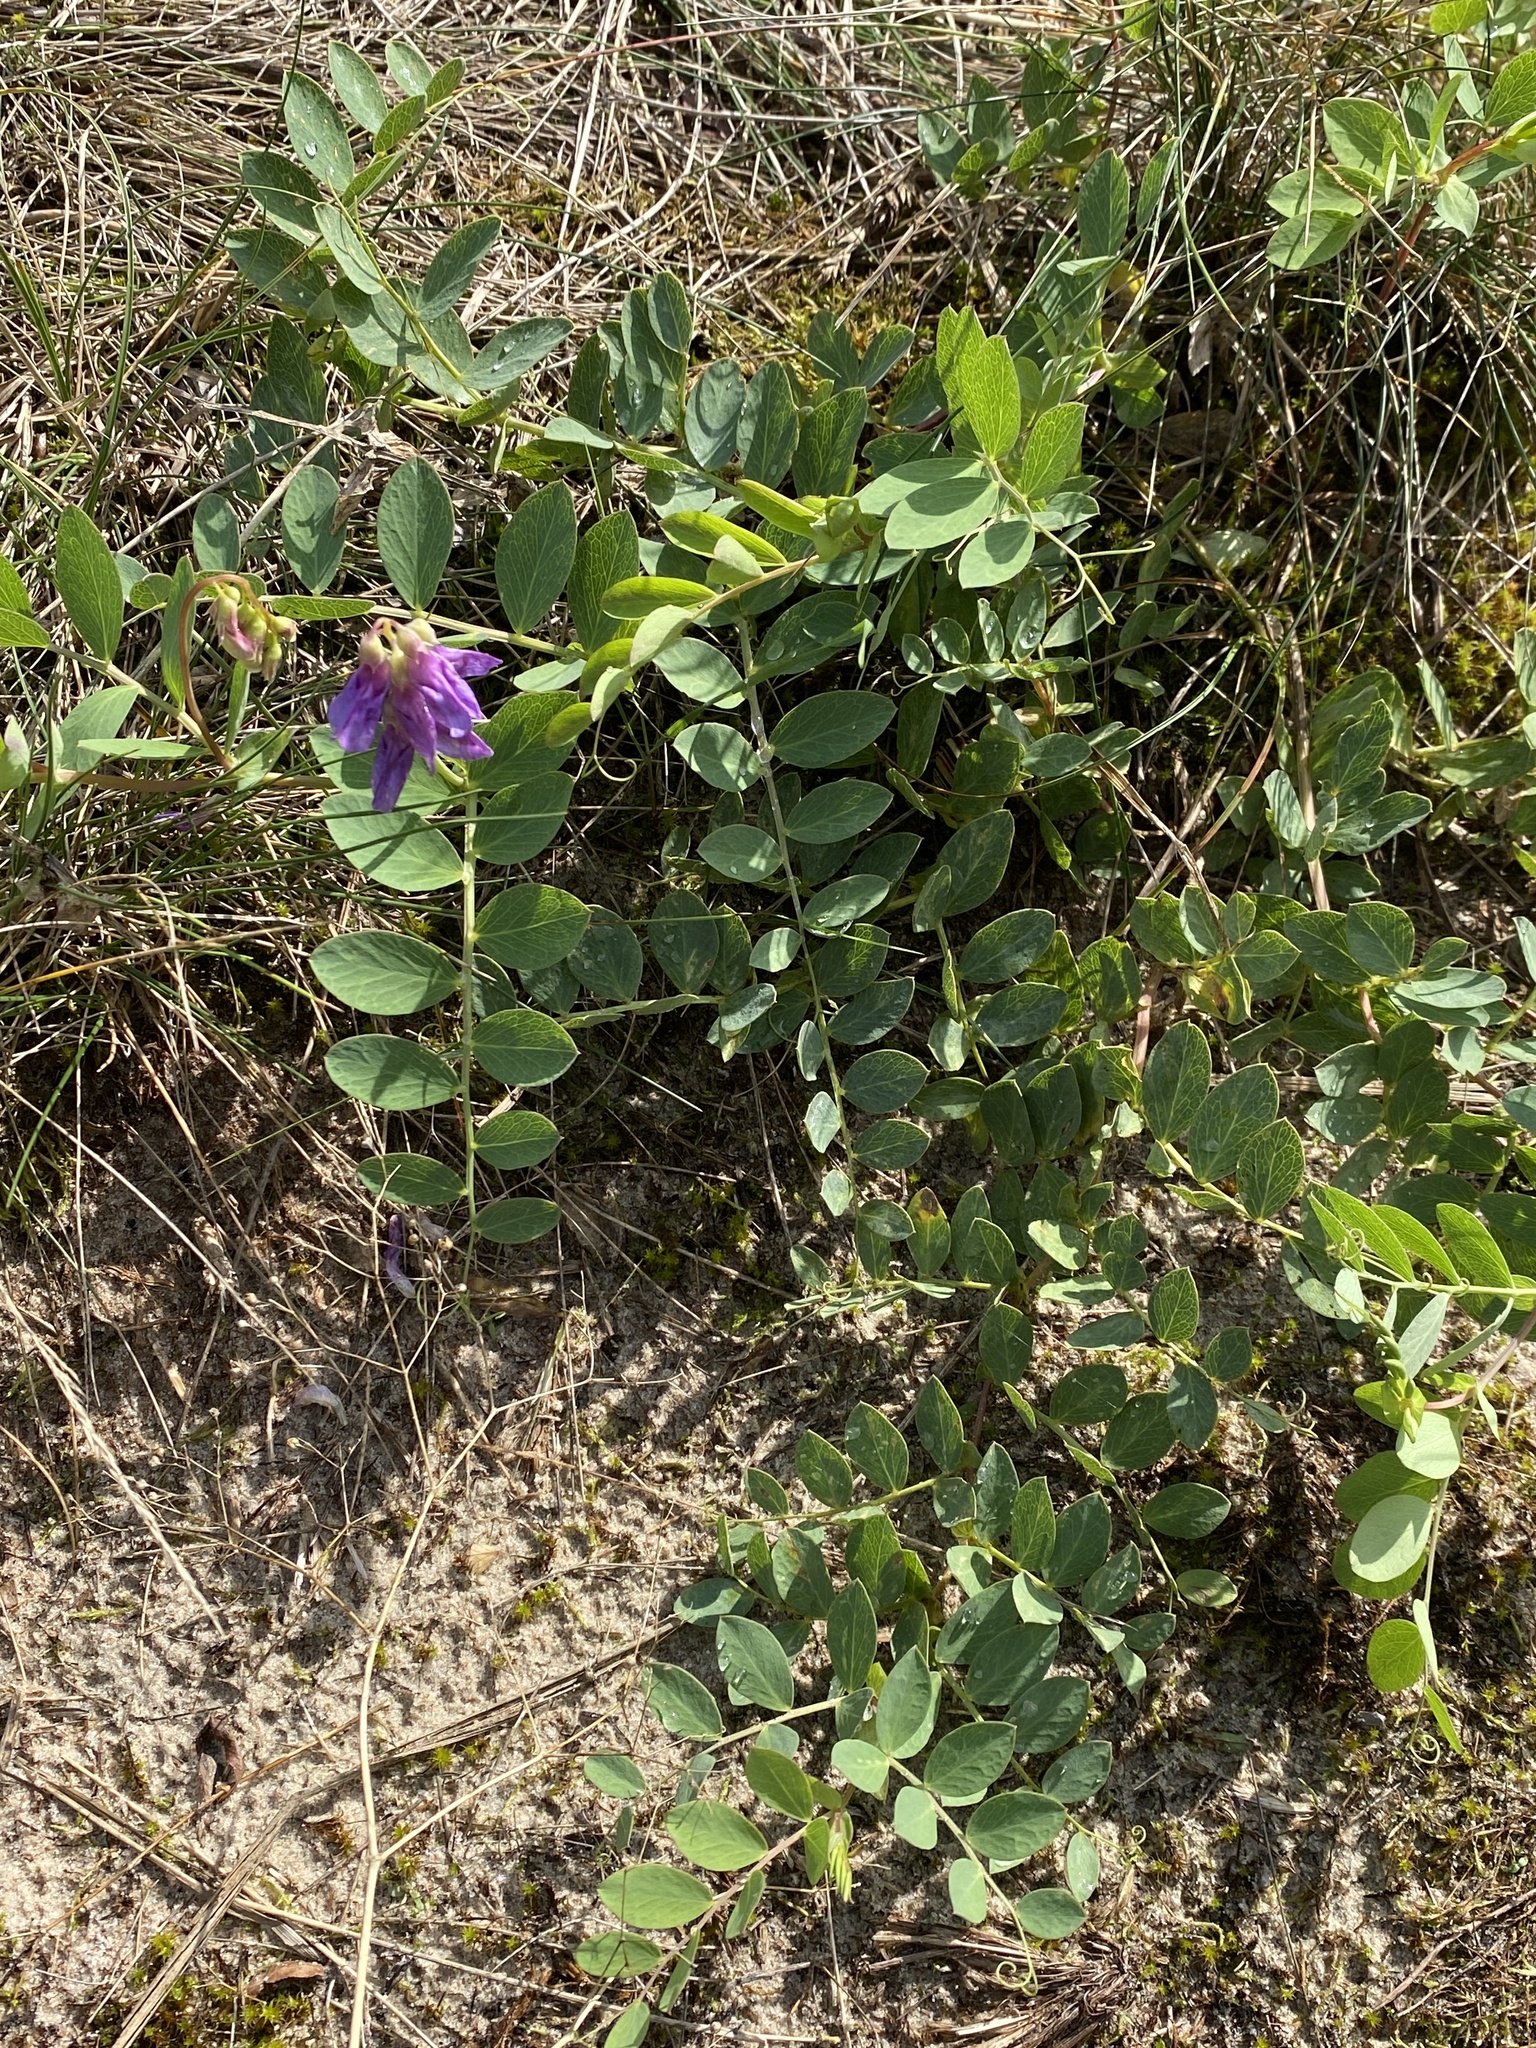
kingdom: Plantae
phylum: Tracheophyta
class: Magnoliopsida
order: Fabales
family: Fabaceae
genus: Lathyrus
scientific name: Lathyrus japonicus
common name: Sea pea
